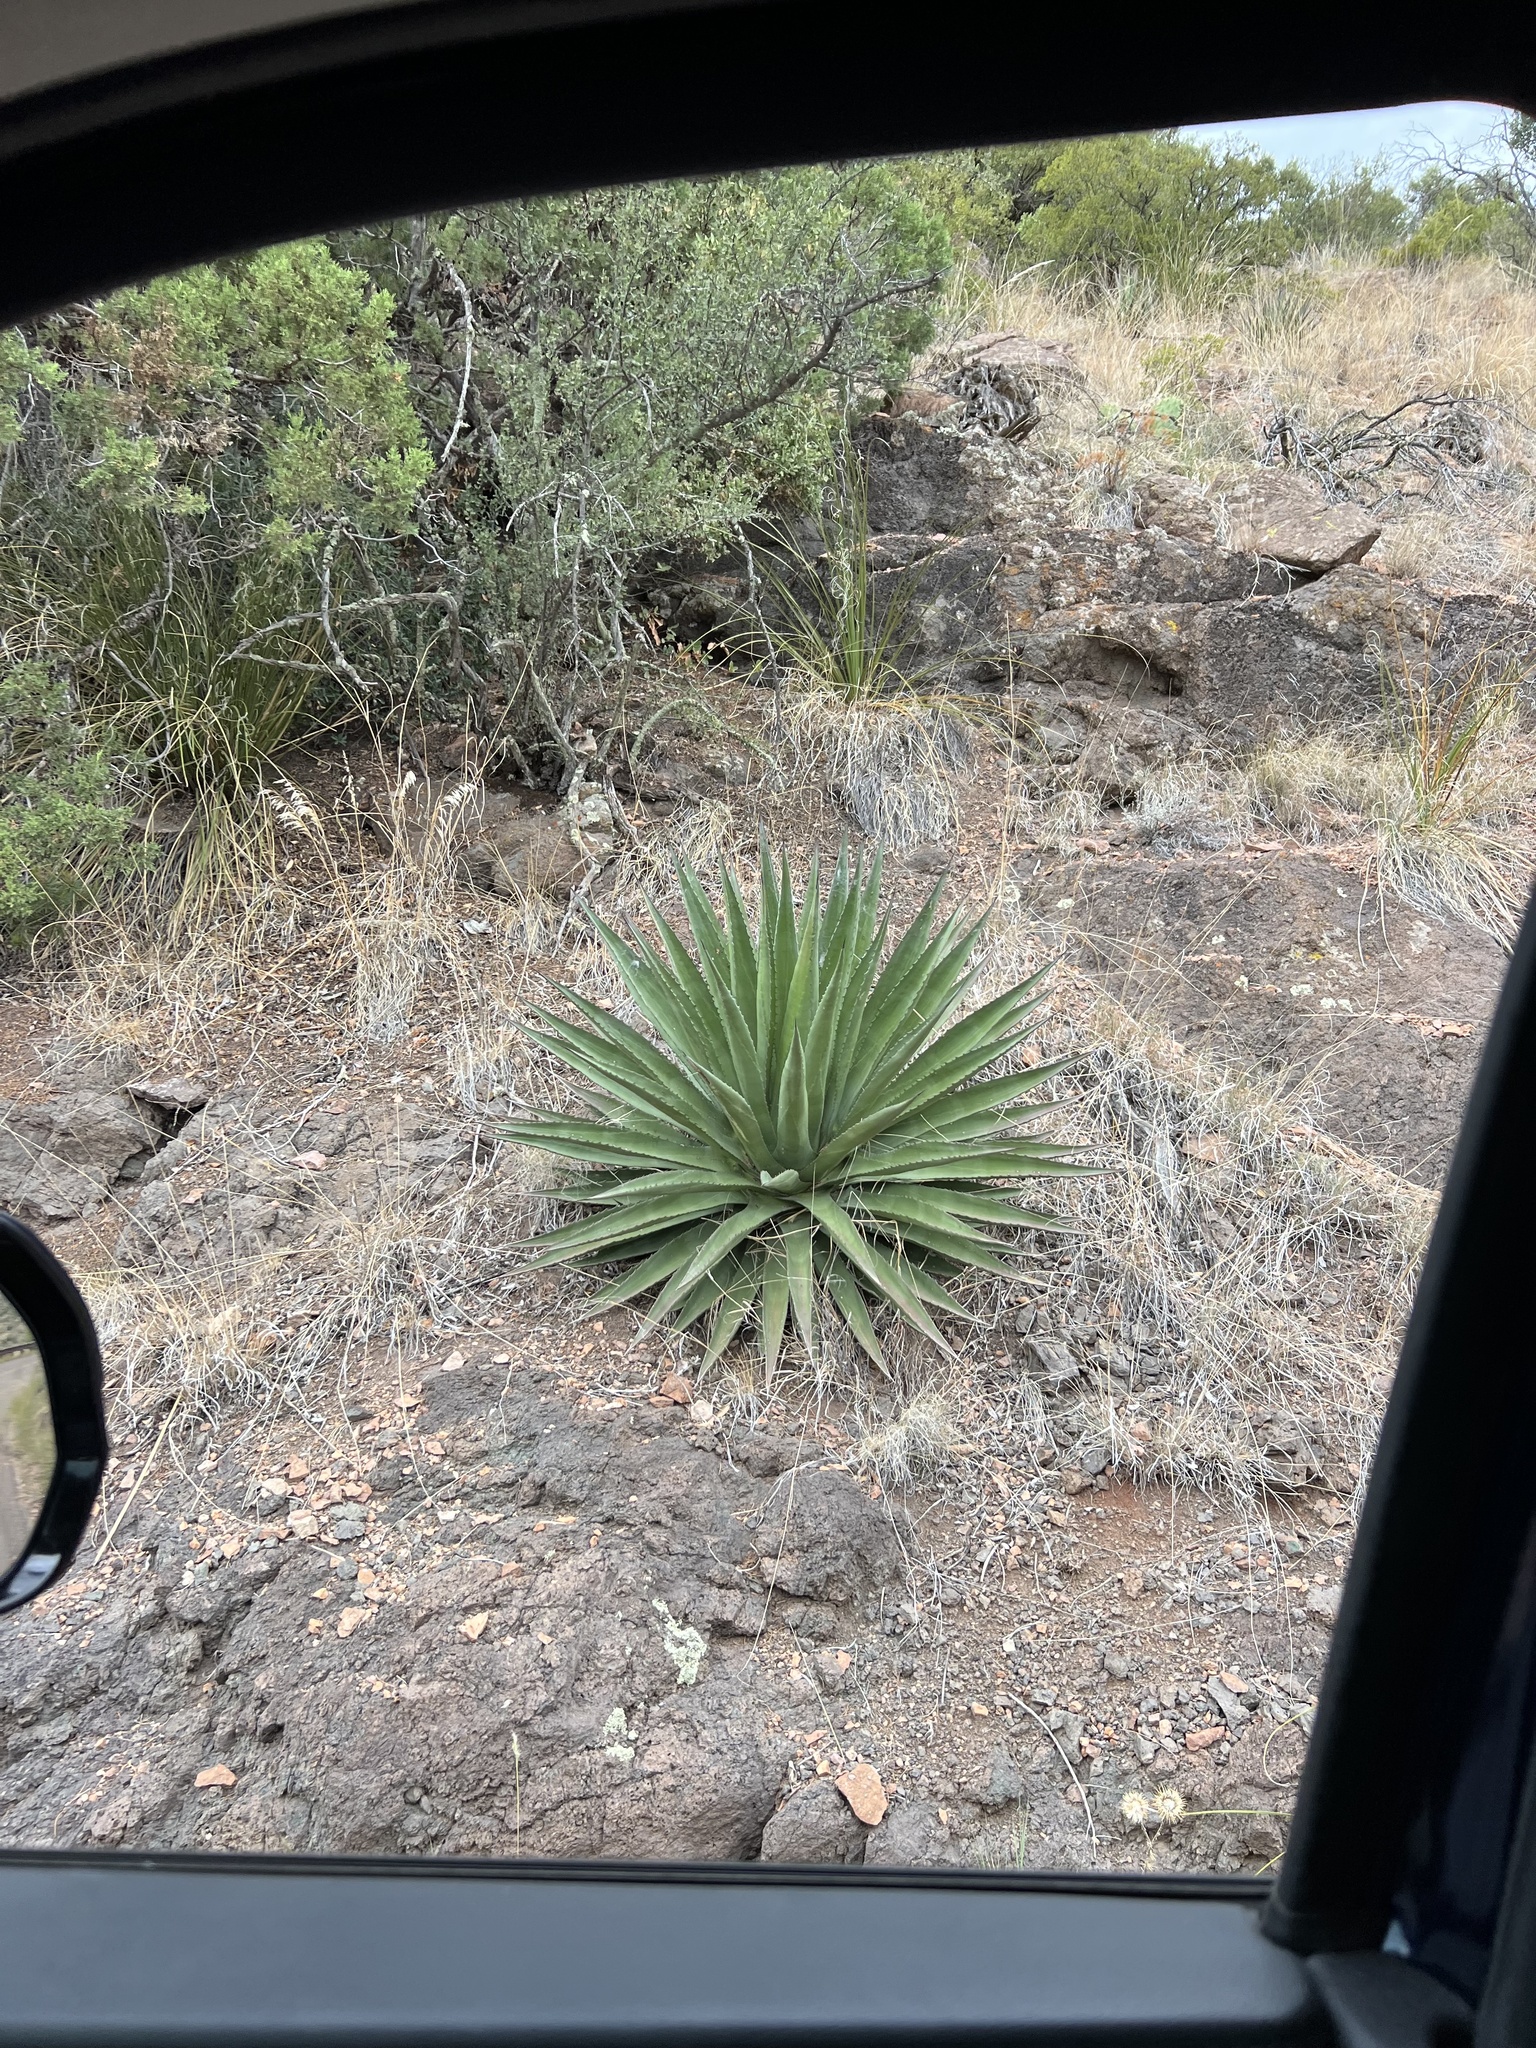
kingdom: Plantae
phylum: Tracheophyta
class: Liliopsida
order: Asparagales
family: Asparagaceae
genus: Agave
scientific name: Agave palmeri
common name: Palmer agave
